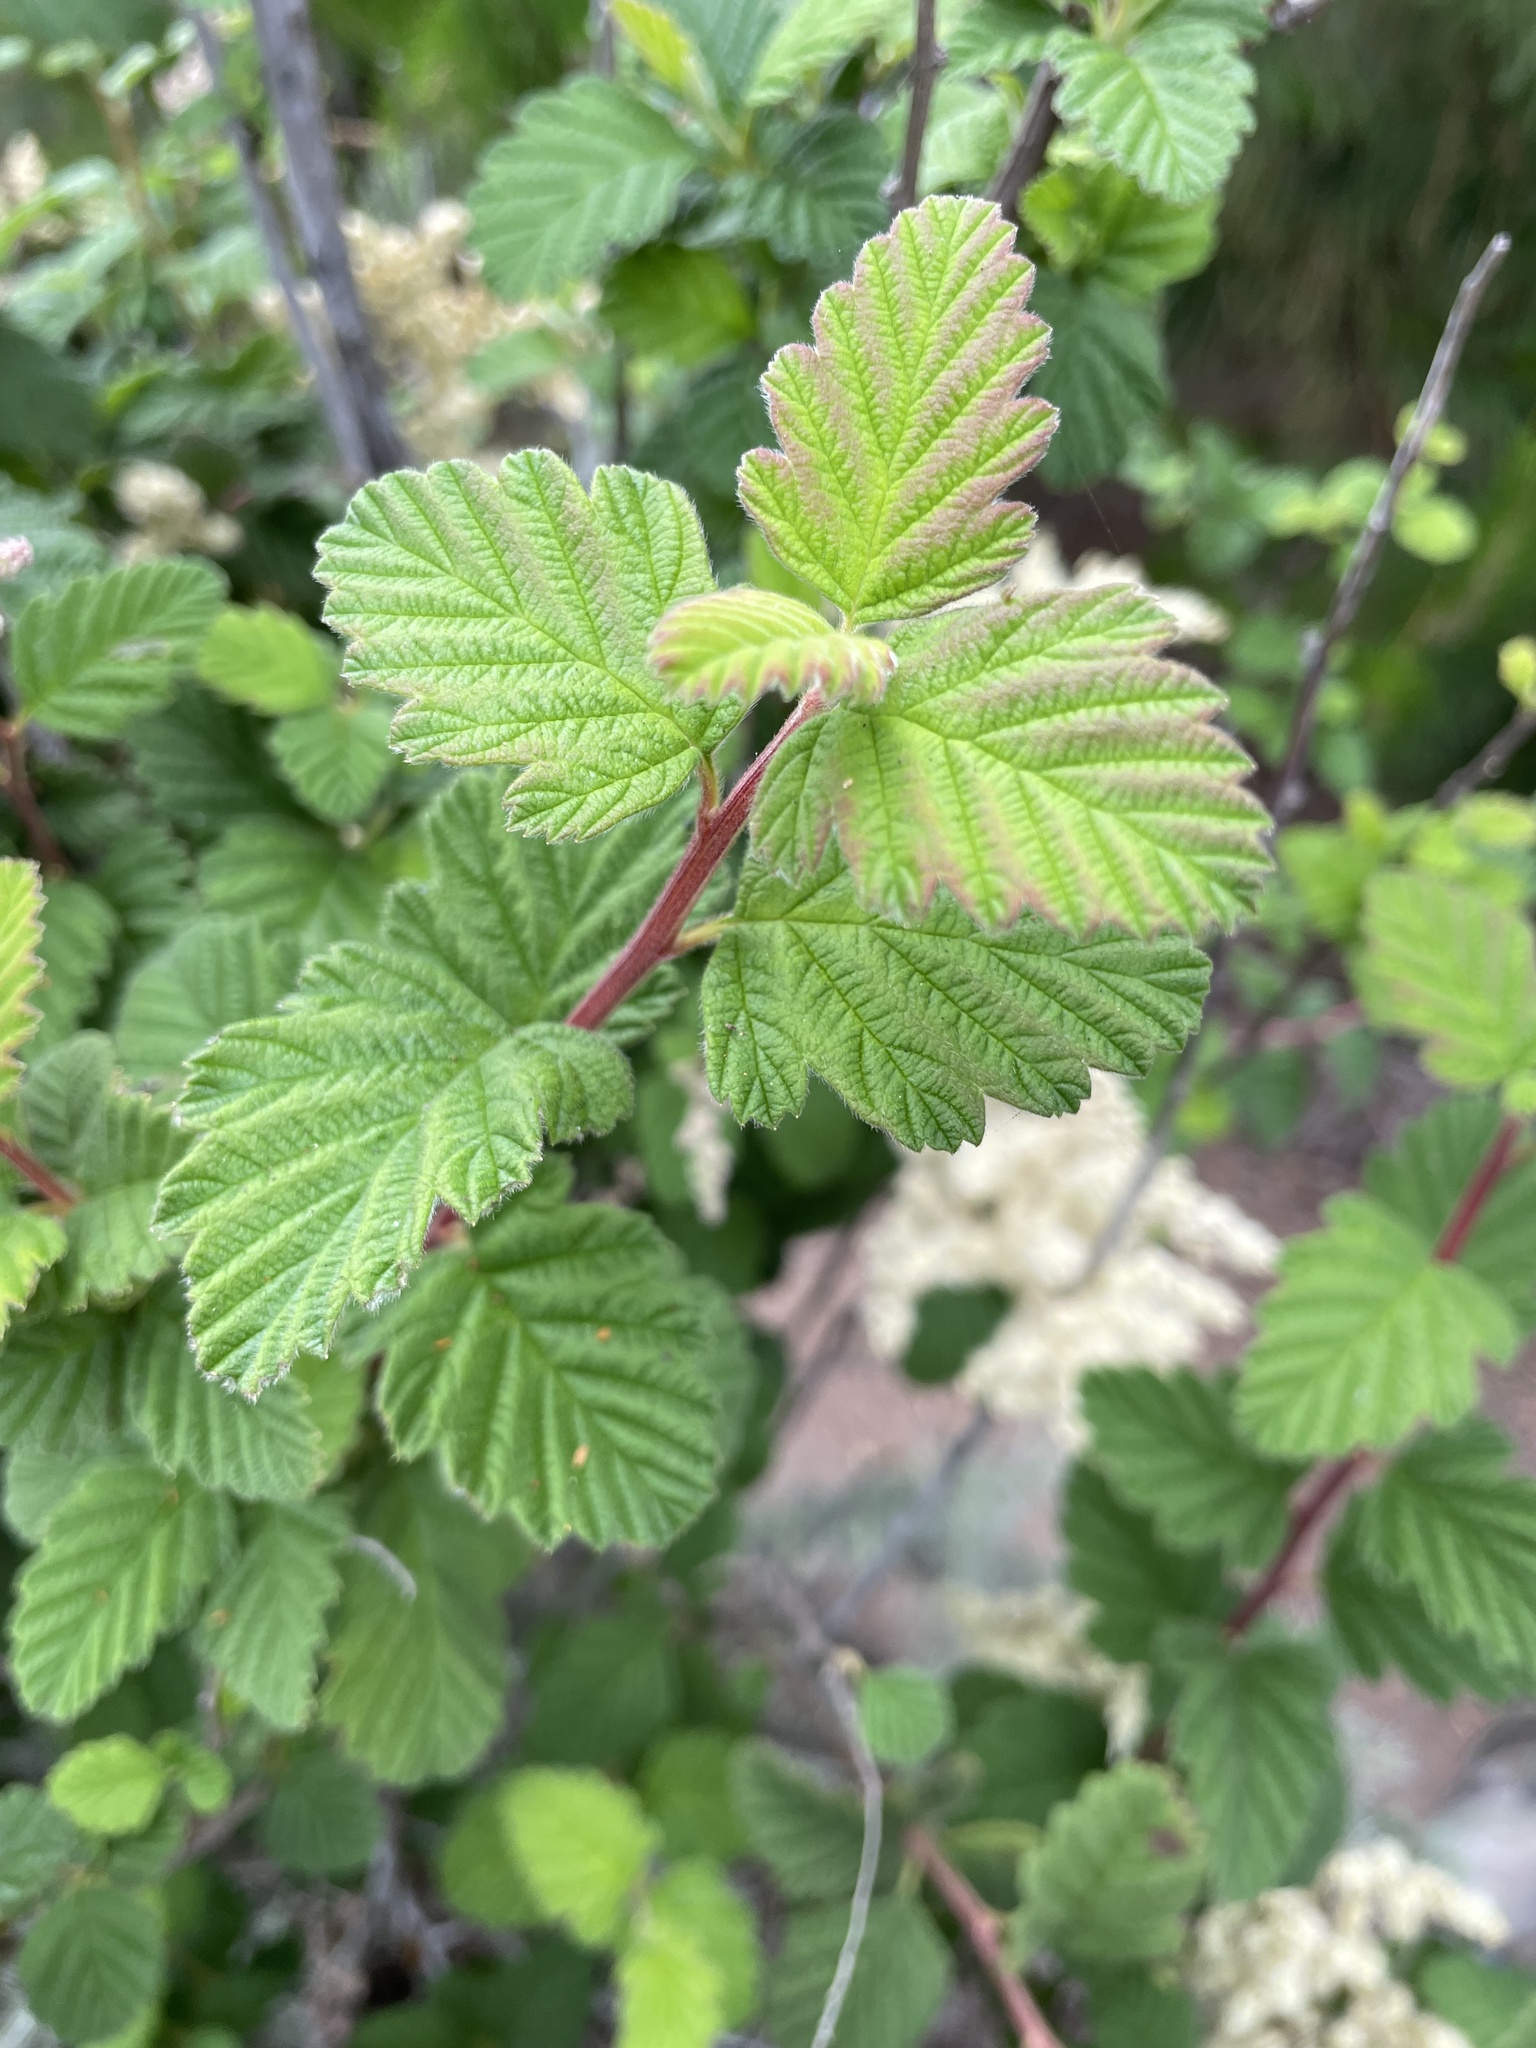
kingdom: Plantae
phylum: Tracheophyta
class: Magnoliopsida
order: Rosales
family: Rosaceae
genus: Holodiscus
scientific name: Holodiscus discolor
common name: Oceanspray
